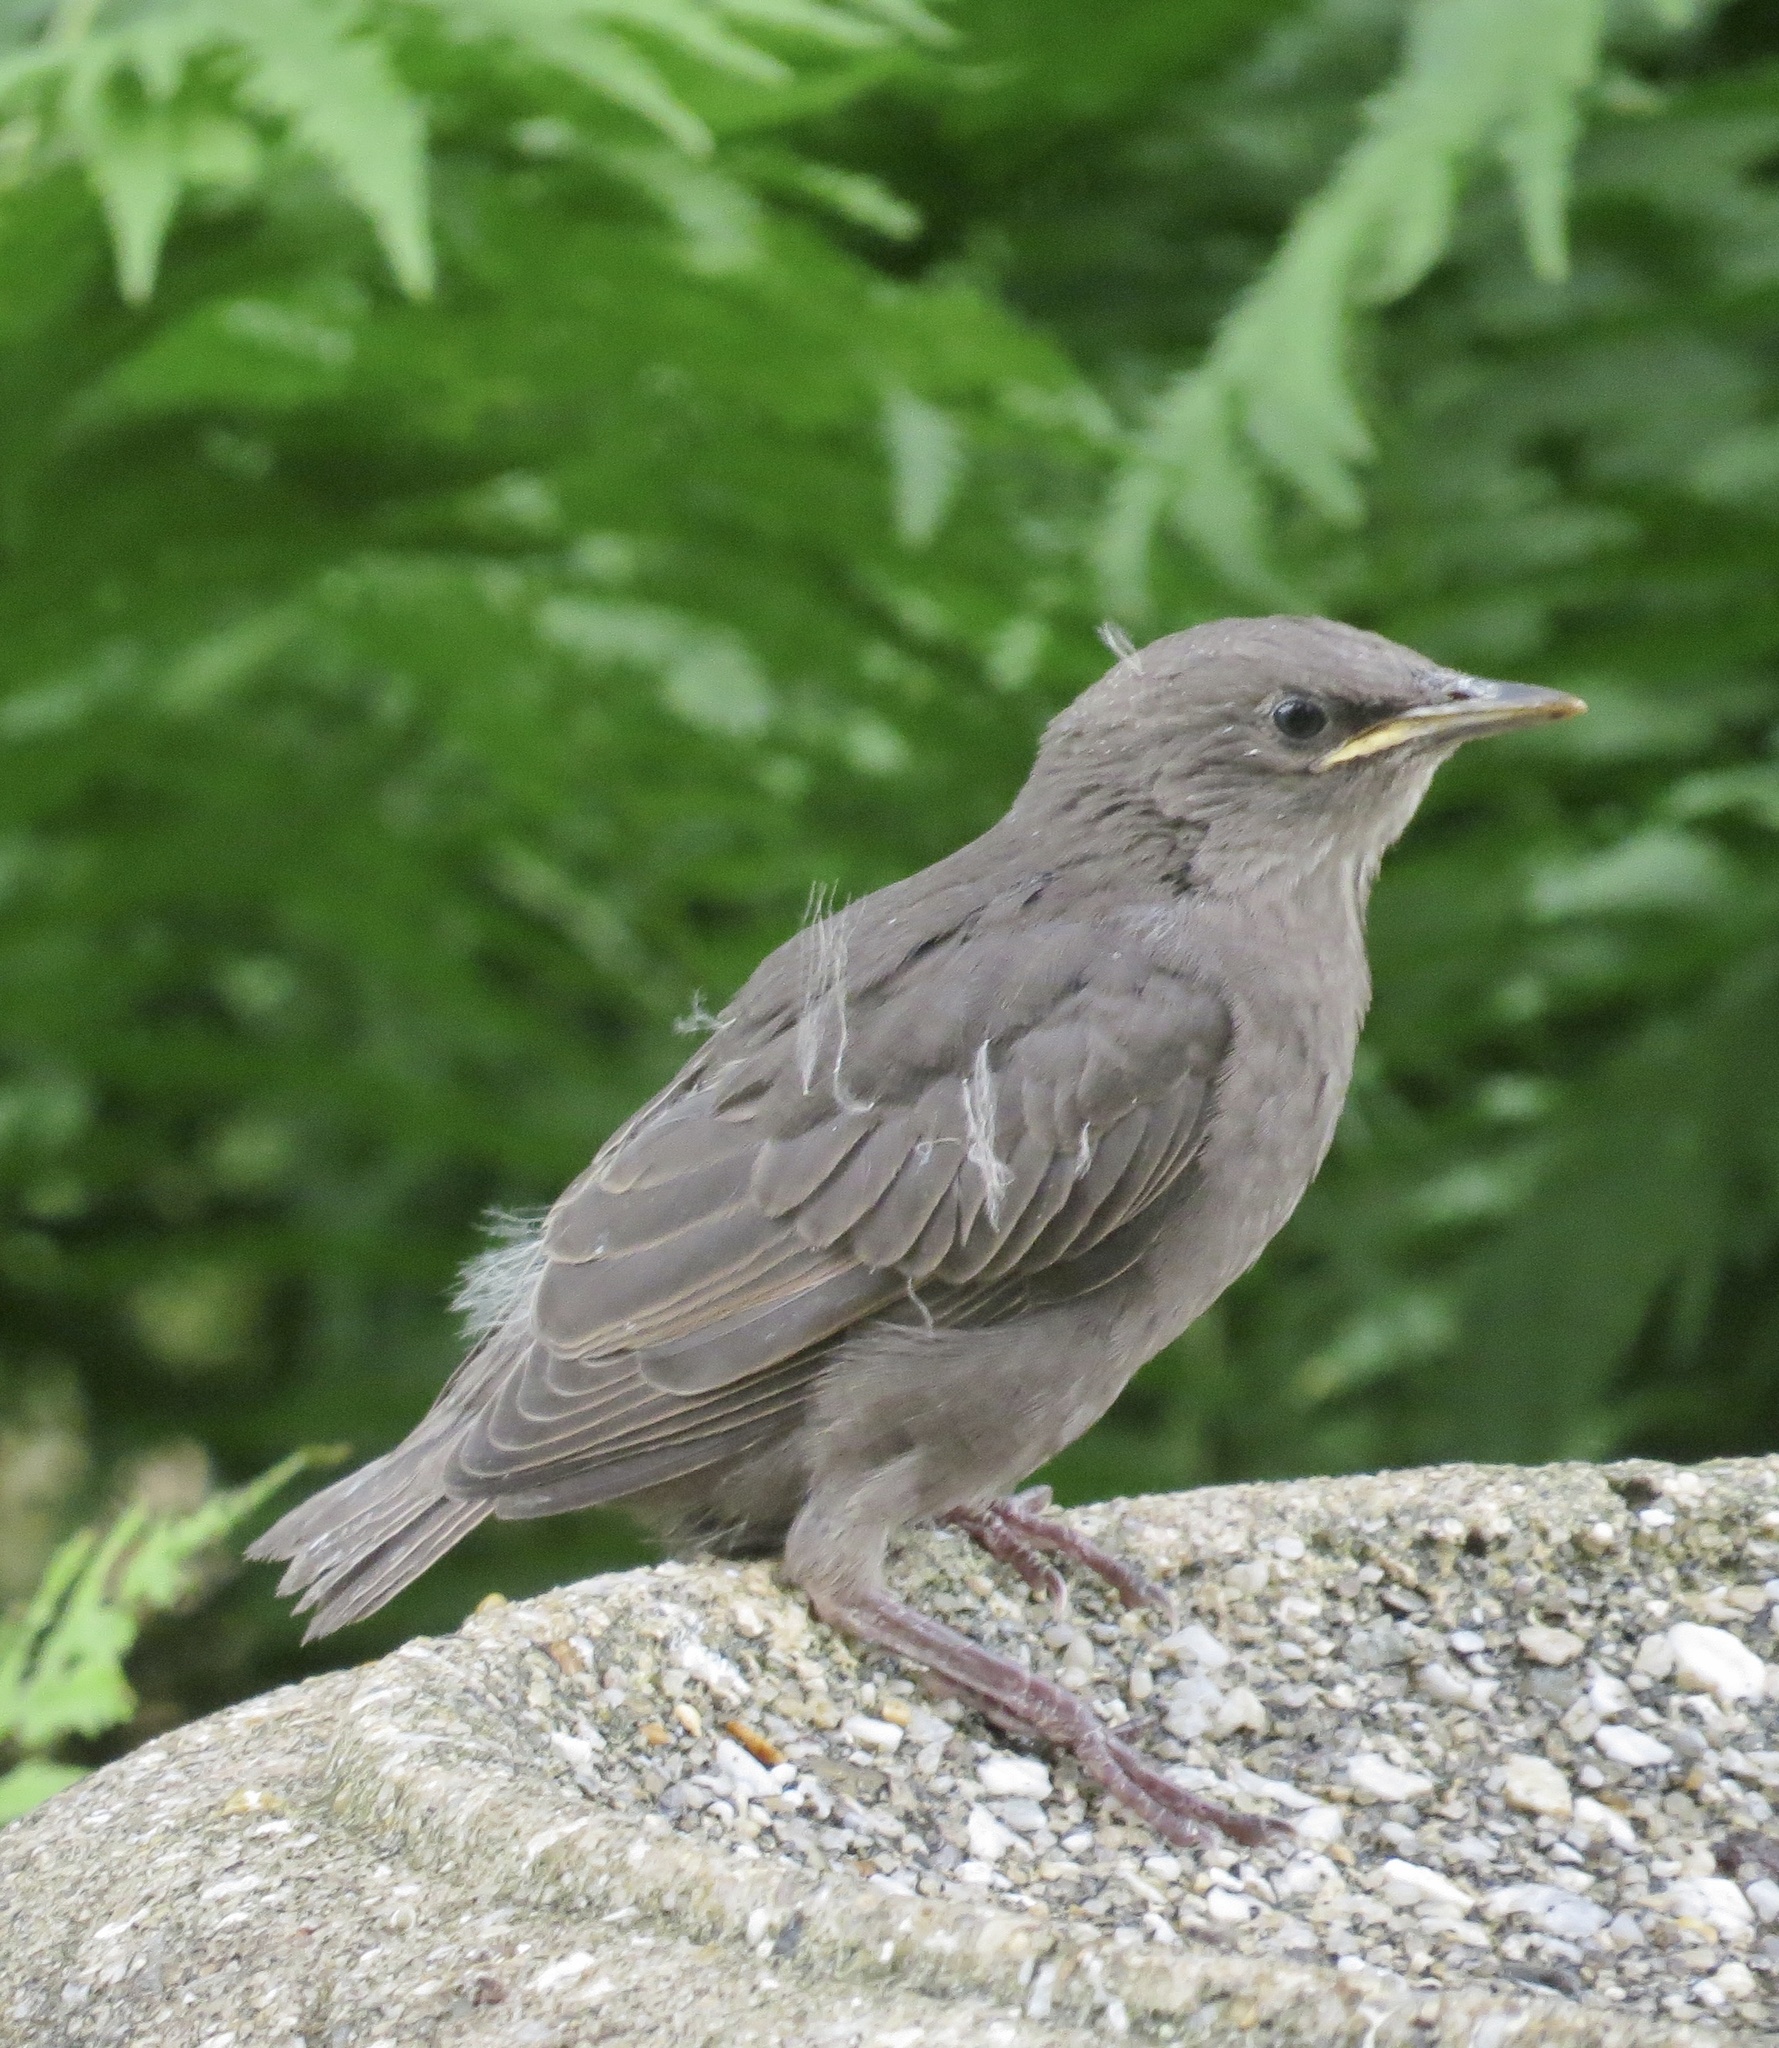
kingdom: Animalia
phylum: Chordata
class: Aves
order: Passeriformes
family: Sturnidae
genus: Sturnus
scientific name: Sturnus vulgaris
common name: Common starling
